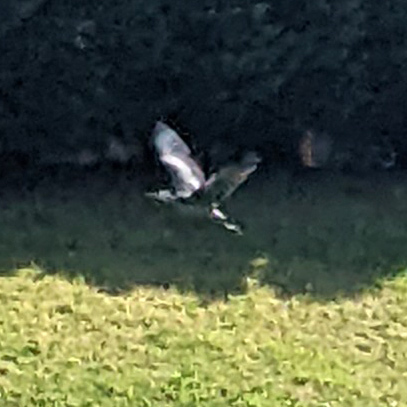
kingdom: Animalia
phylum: Chordata
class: Aves
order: Pelecaniformes
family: Ardeidae
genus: Ardea
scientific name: Ardea herodias
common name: Great blue heron
